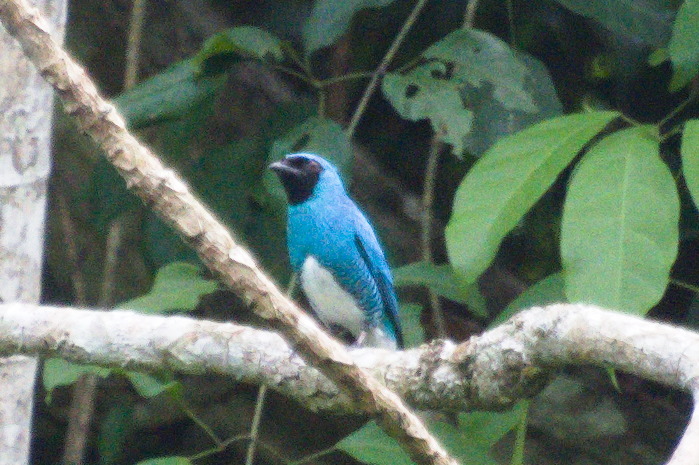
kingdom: Animalia
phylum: Chordata
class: Aves
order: Passeriformes
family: Thraupidae
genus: Tersina
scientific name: Tersina viridis
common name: Swallow tanager
